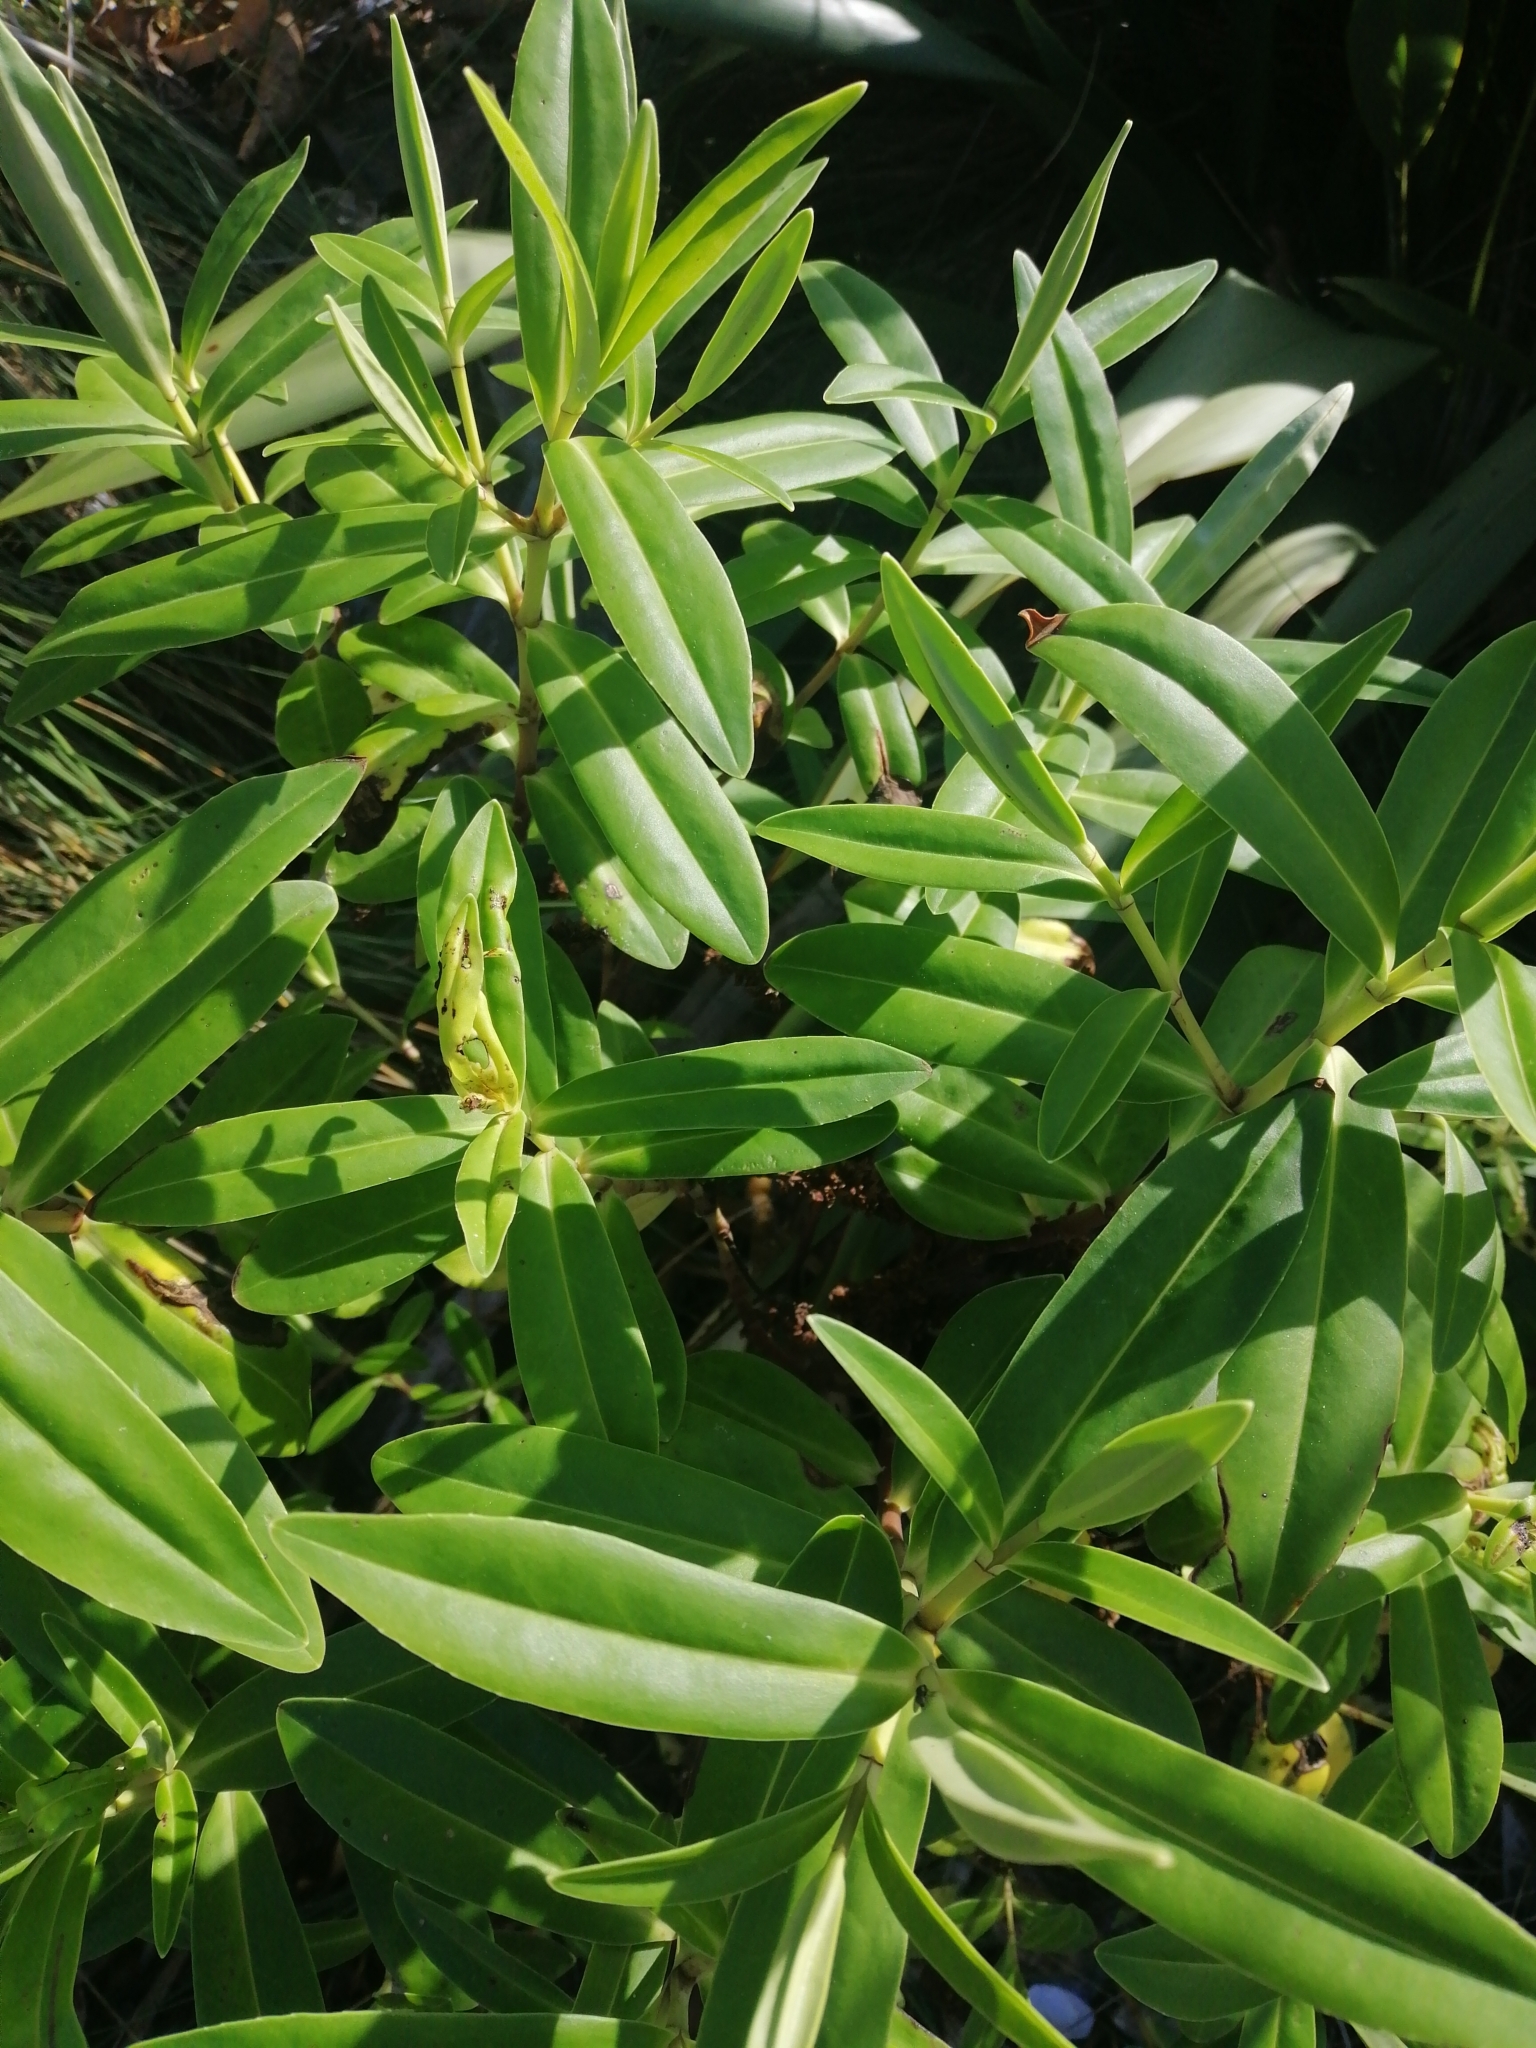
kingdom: Plantae
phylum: Tracheophyta
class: Magnoliopsida
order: Lamiales
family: Plantaginaceae
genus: Veronica
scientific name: Veronica stricta
